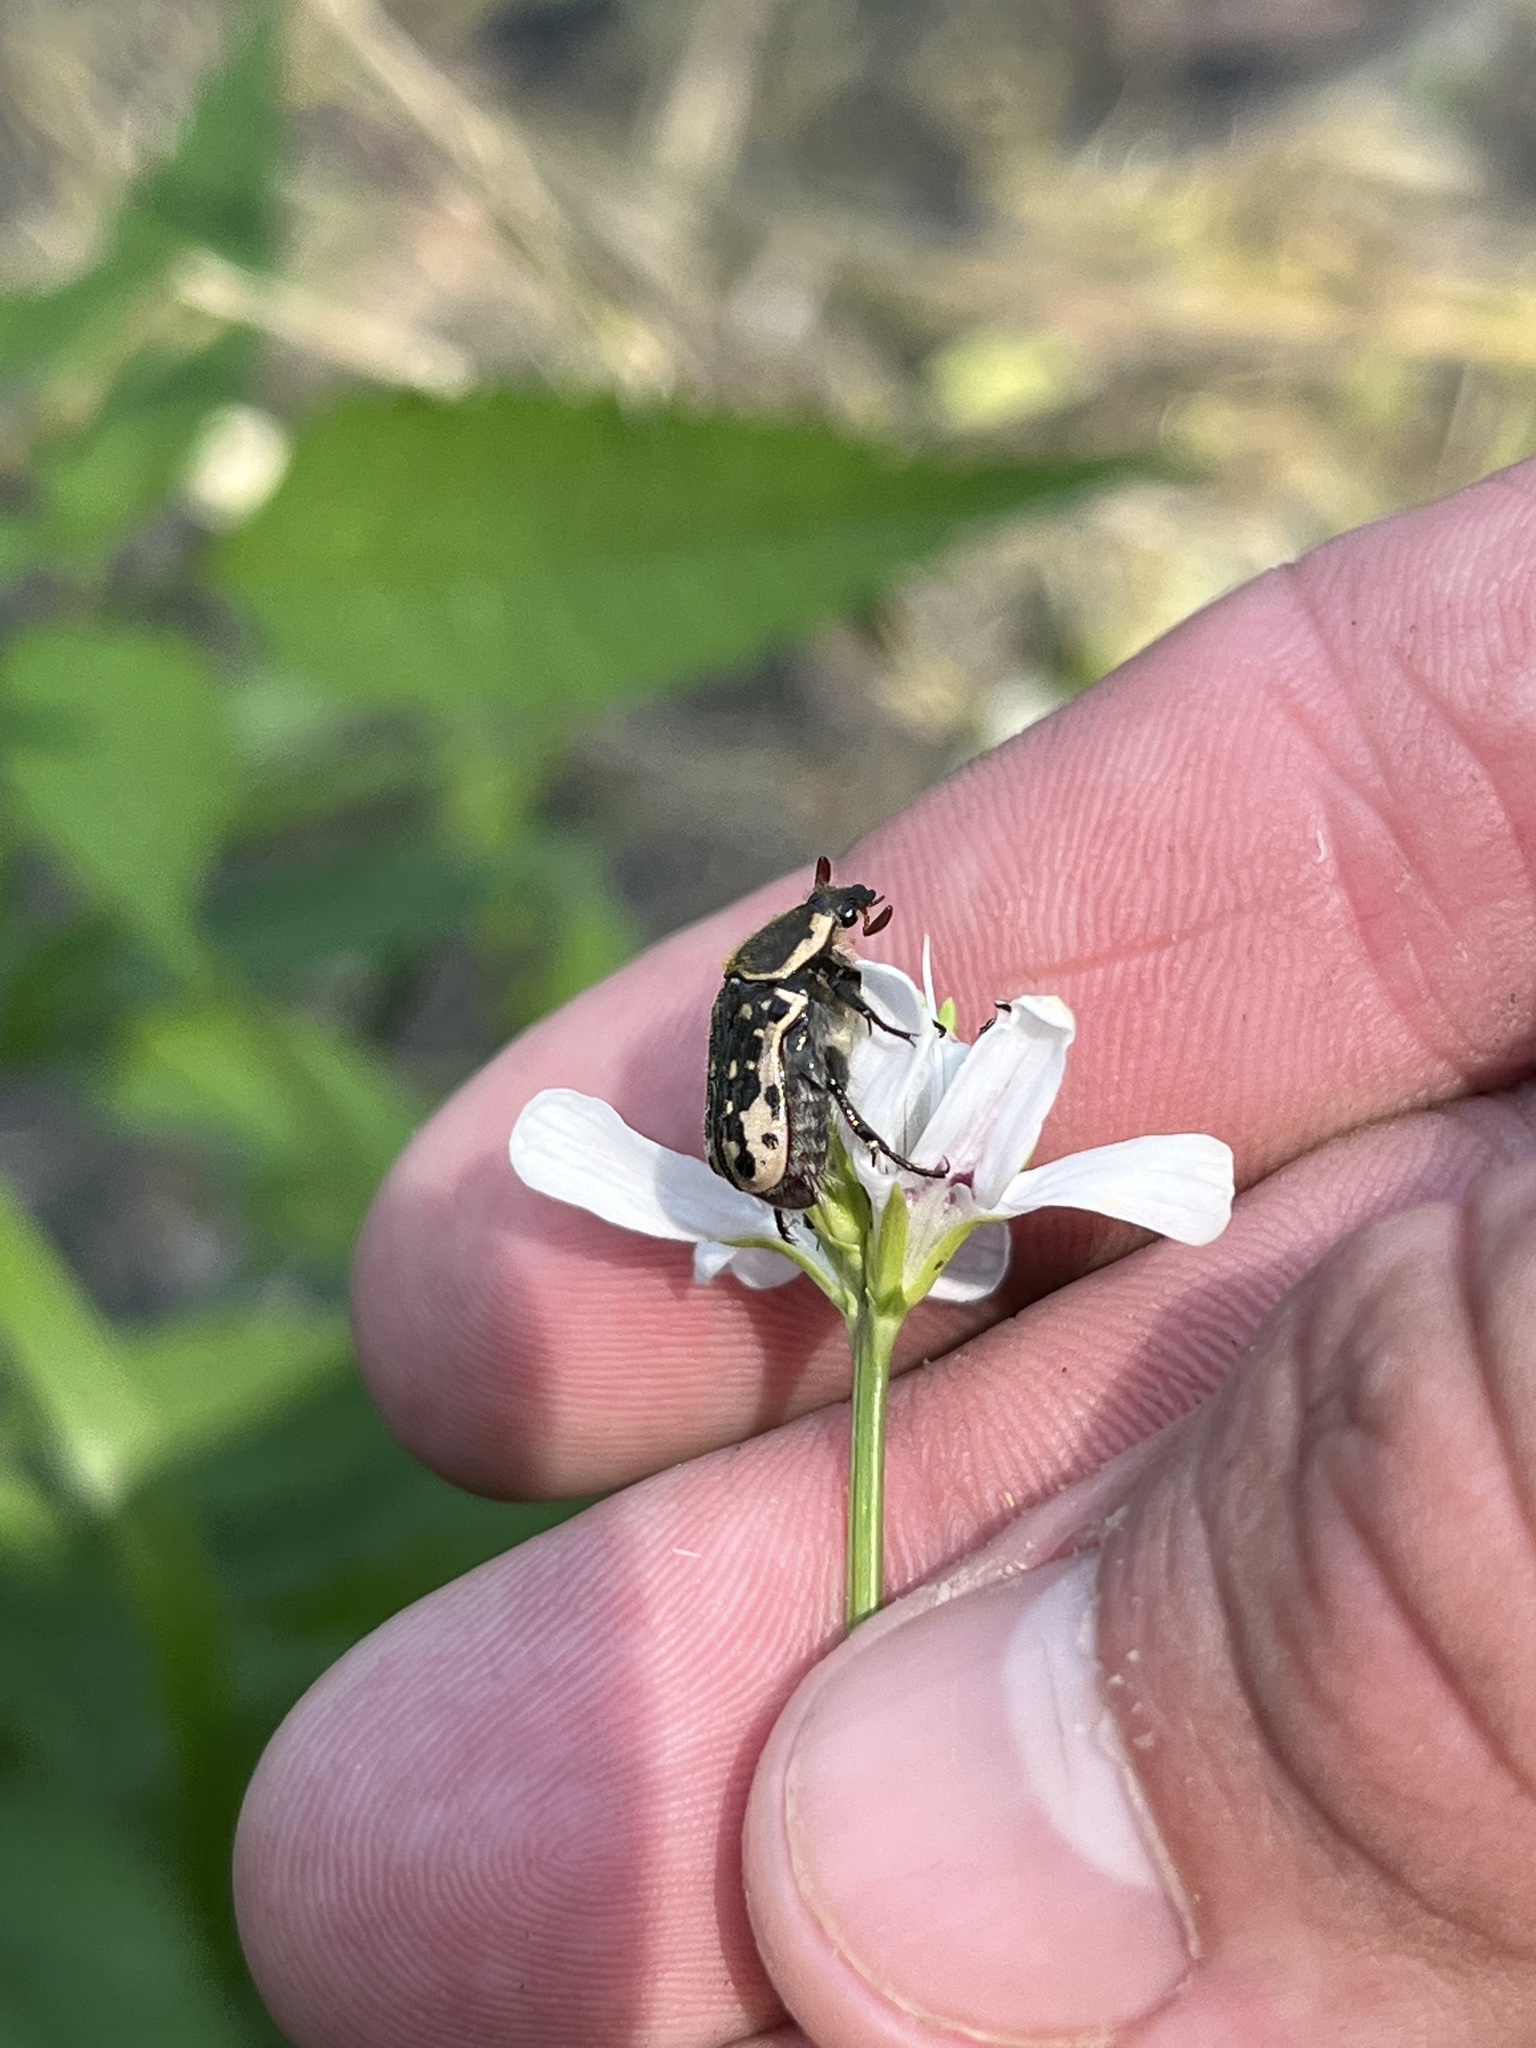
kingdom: Animalia
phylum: Arthropoda
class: Insecta
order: Coleoptera
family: Scarabaeidae
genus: Euphoria
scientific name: Euphoria kernii
